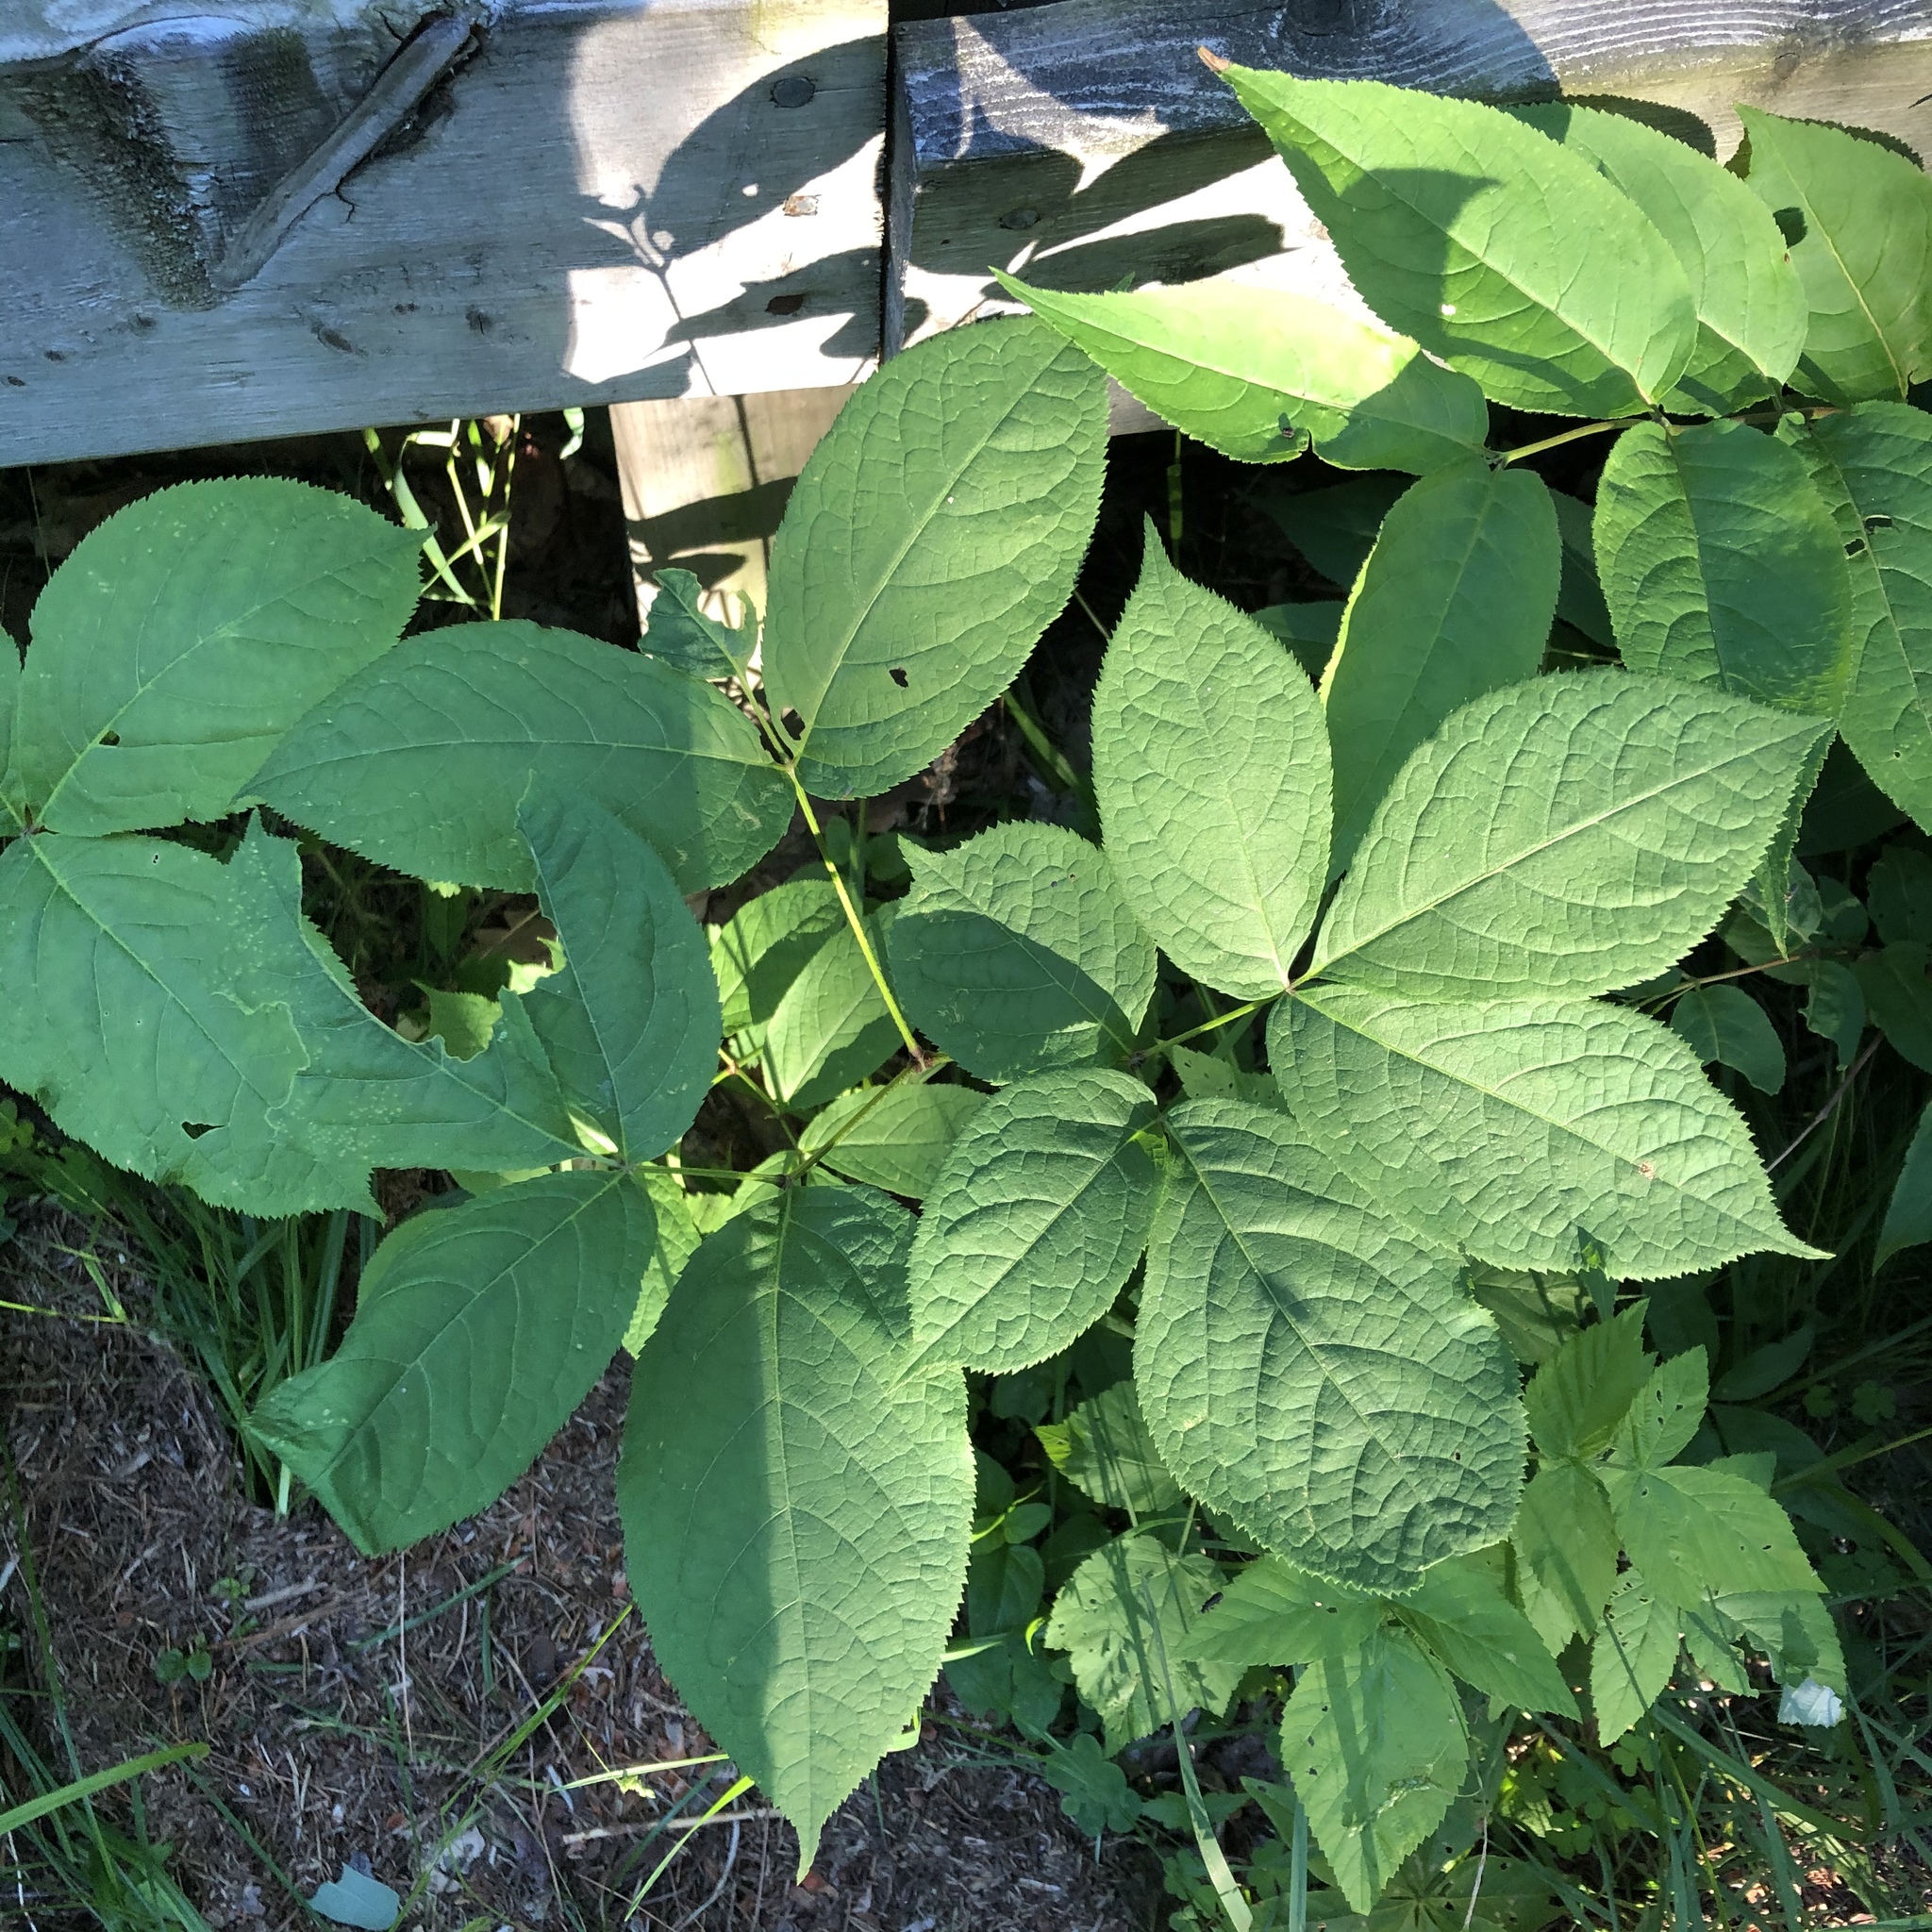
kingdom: Plantae
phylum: Tracheophyta
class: Magnoliopsida
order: Apiales
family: Araliaceae
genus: Aralia
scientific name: Aralia nudicaulis
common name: Wild sarsaparilla
